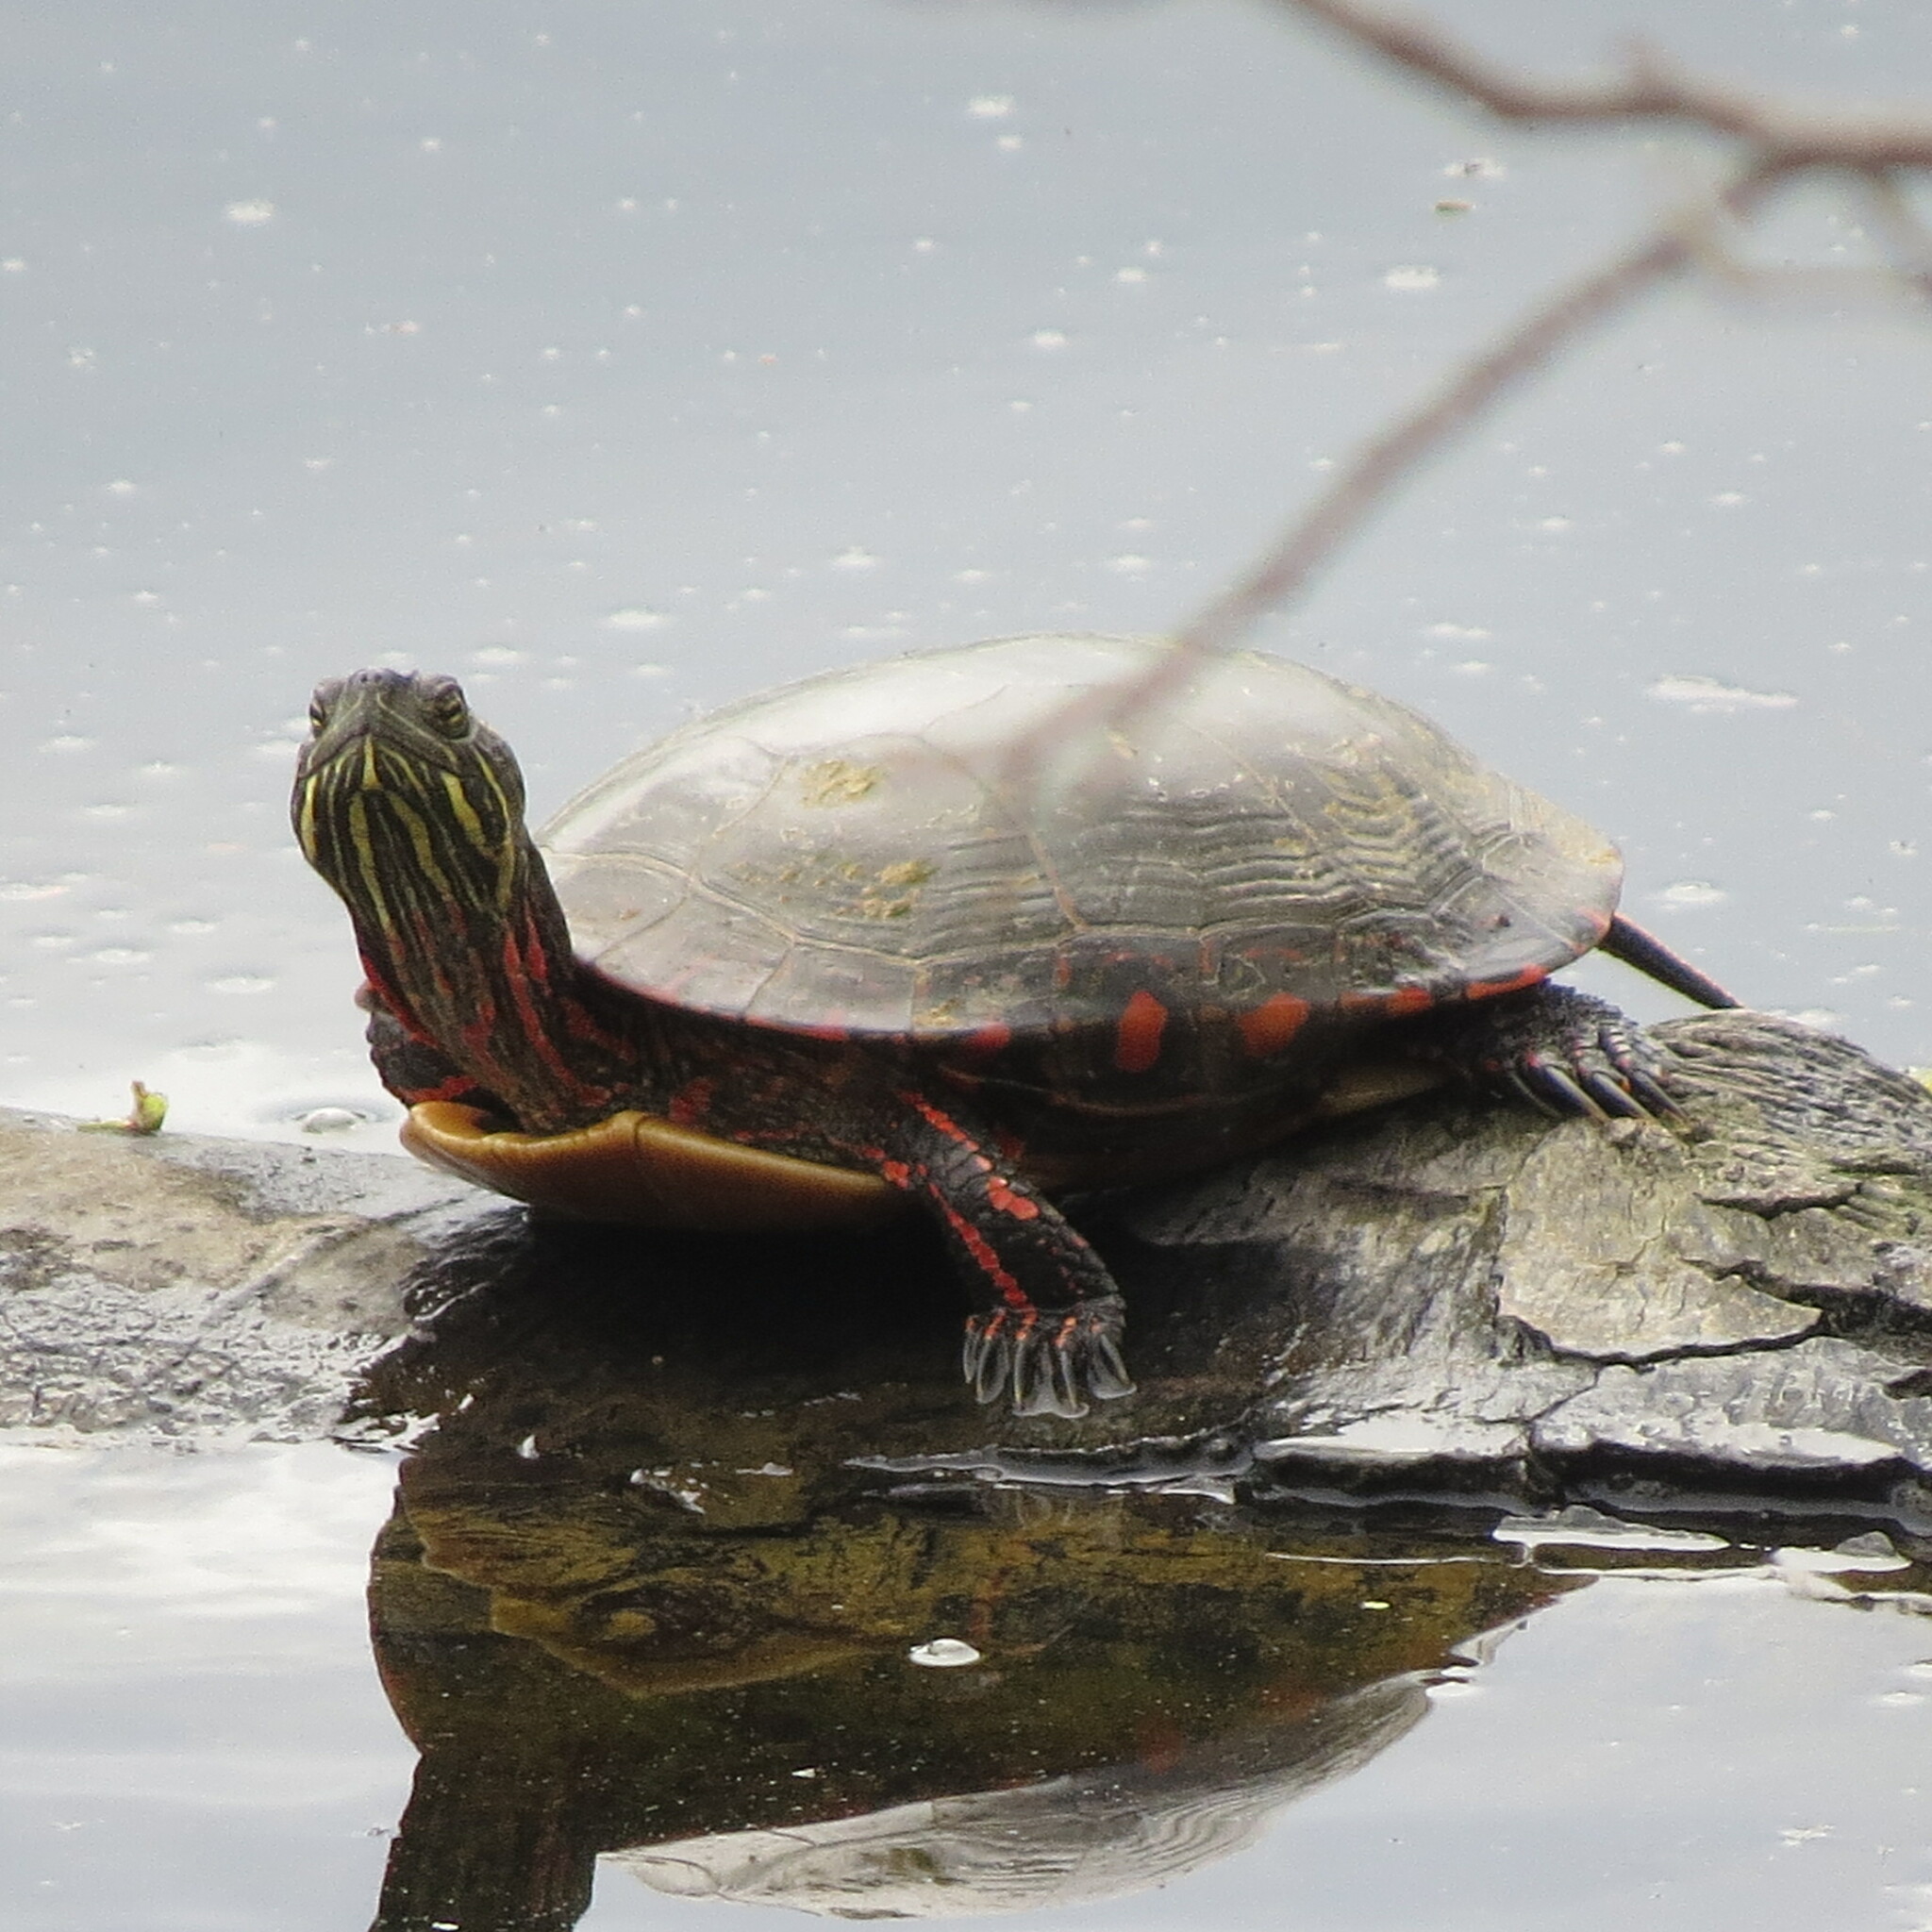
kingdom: Animalia
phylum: Chordata
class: Testudines
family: Emydidae
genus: Chrysemys
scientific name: Chrysemys picta
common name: Painted turtle
